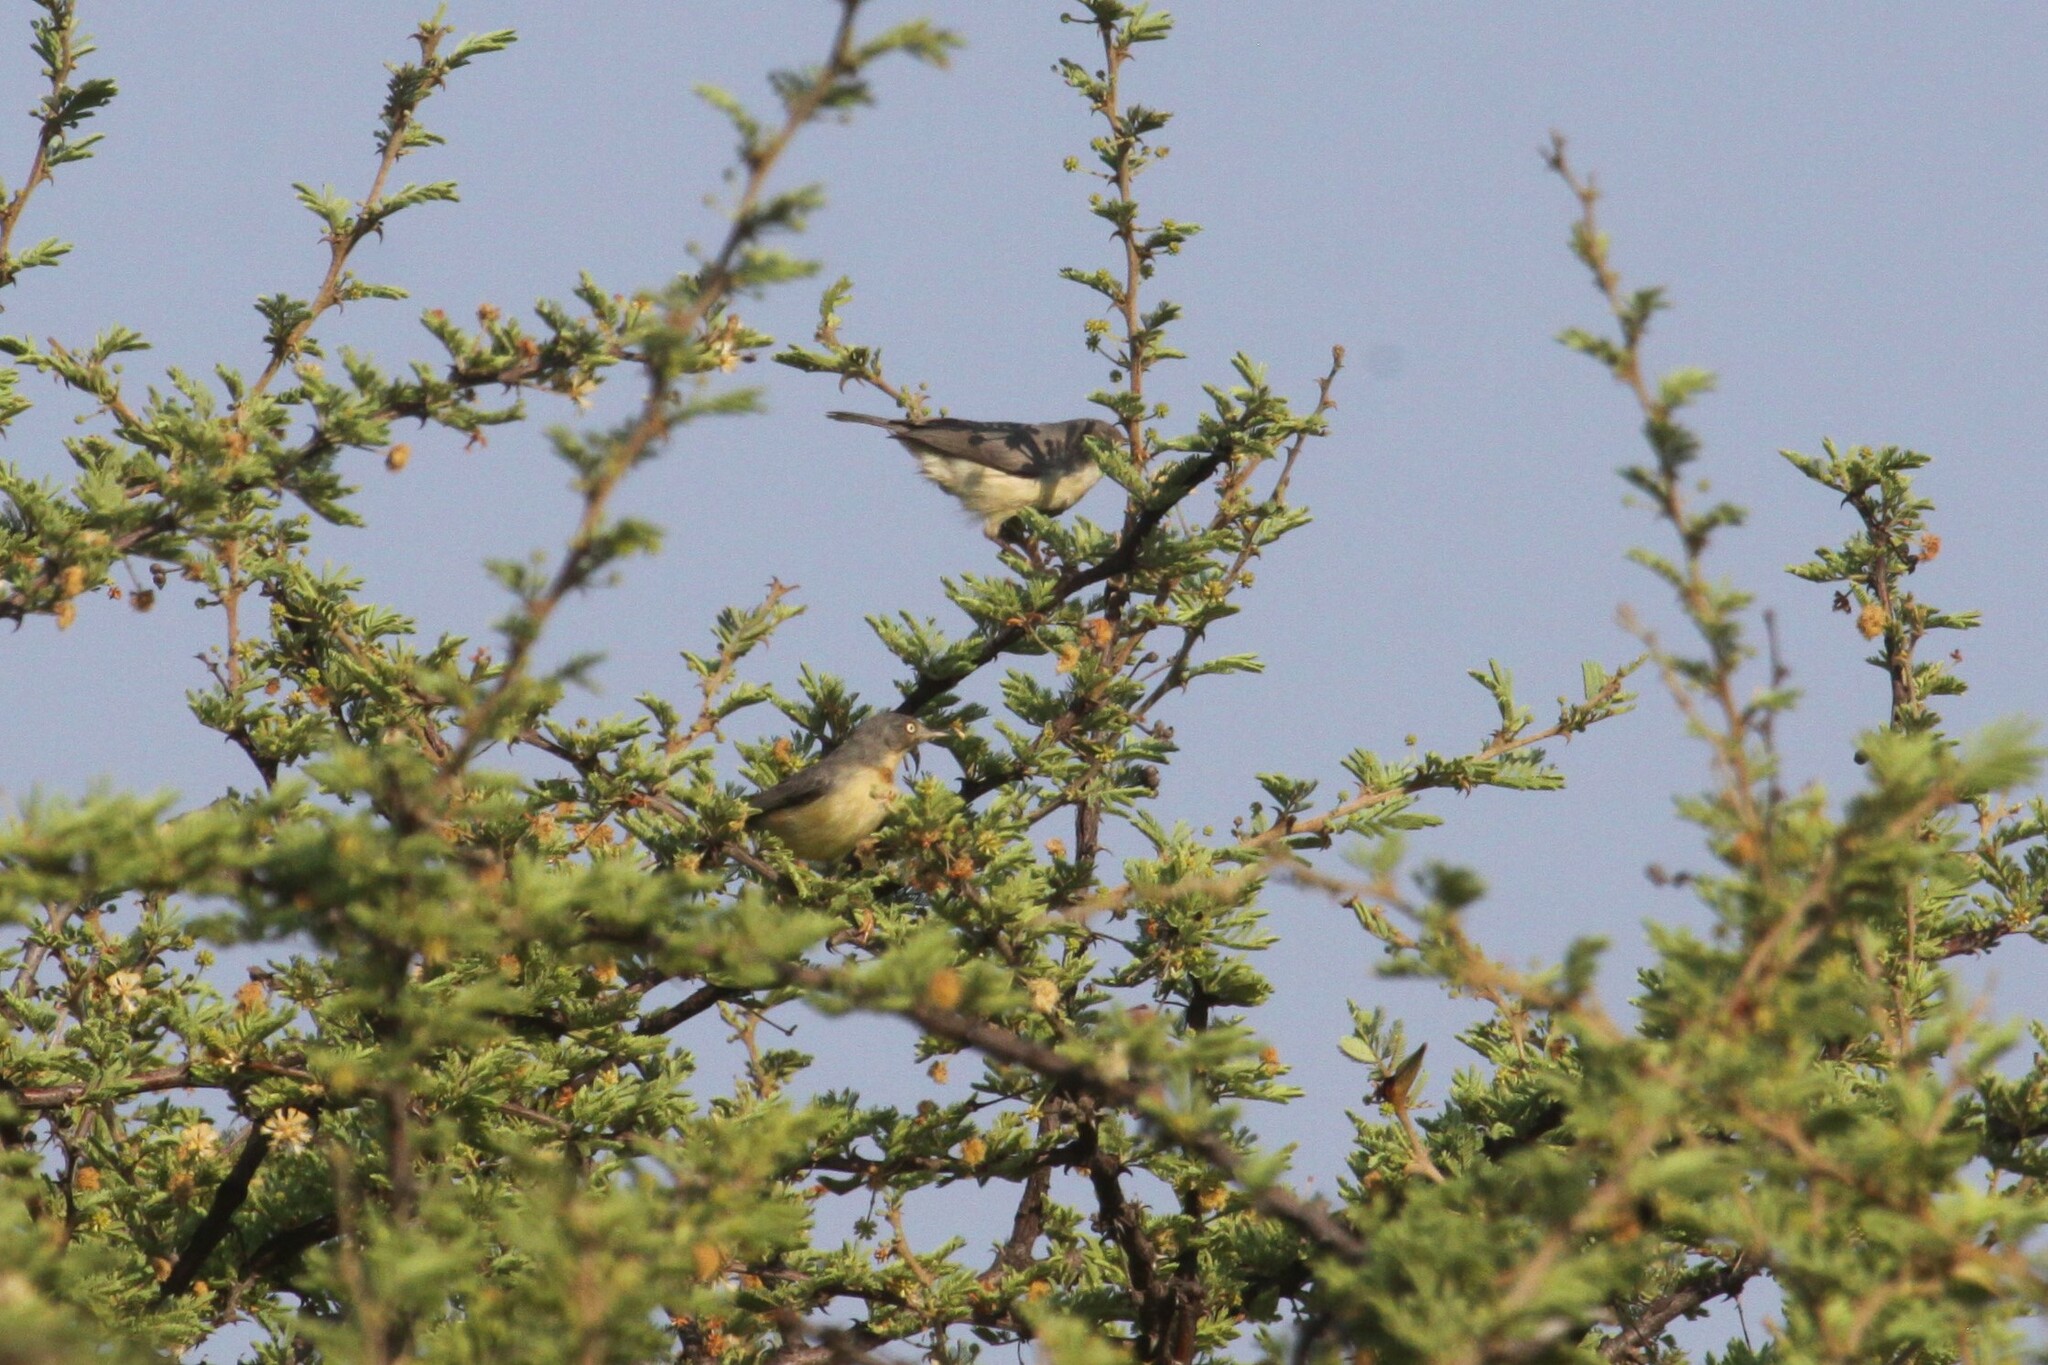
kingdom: Animalia
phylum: Chordata
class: Aves
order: Passeriformes
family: Cisticolidae
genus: Eremomela
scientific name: Eremomela usticollis
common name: Burnt-neck eremomela
